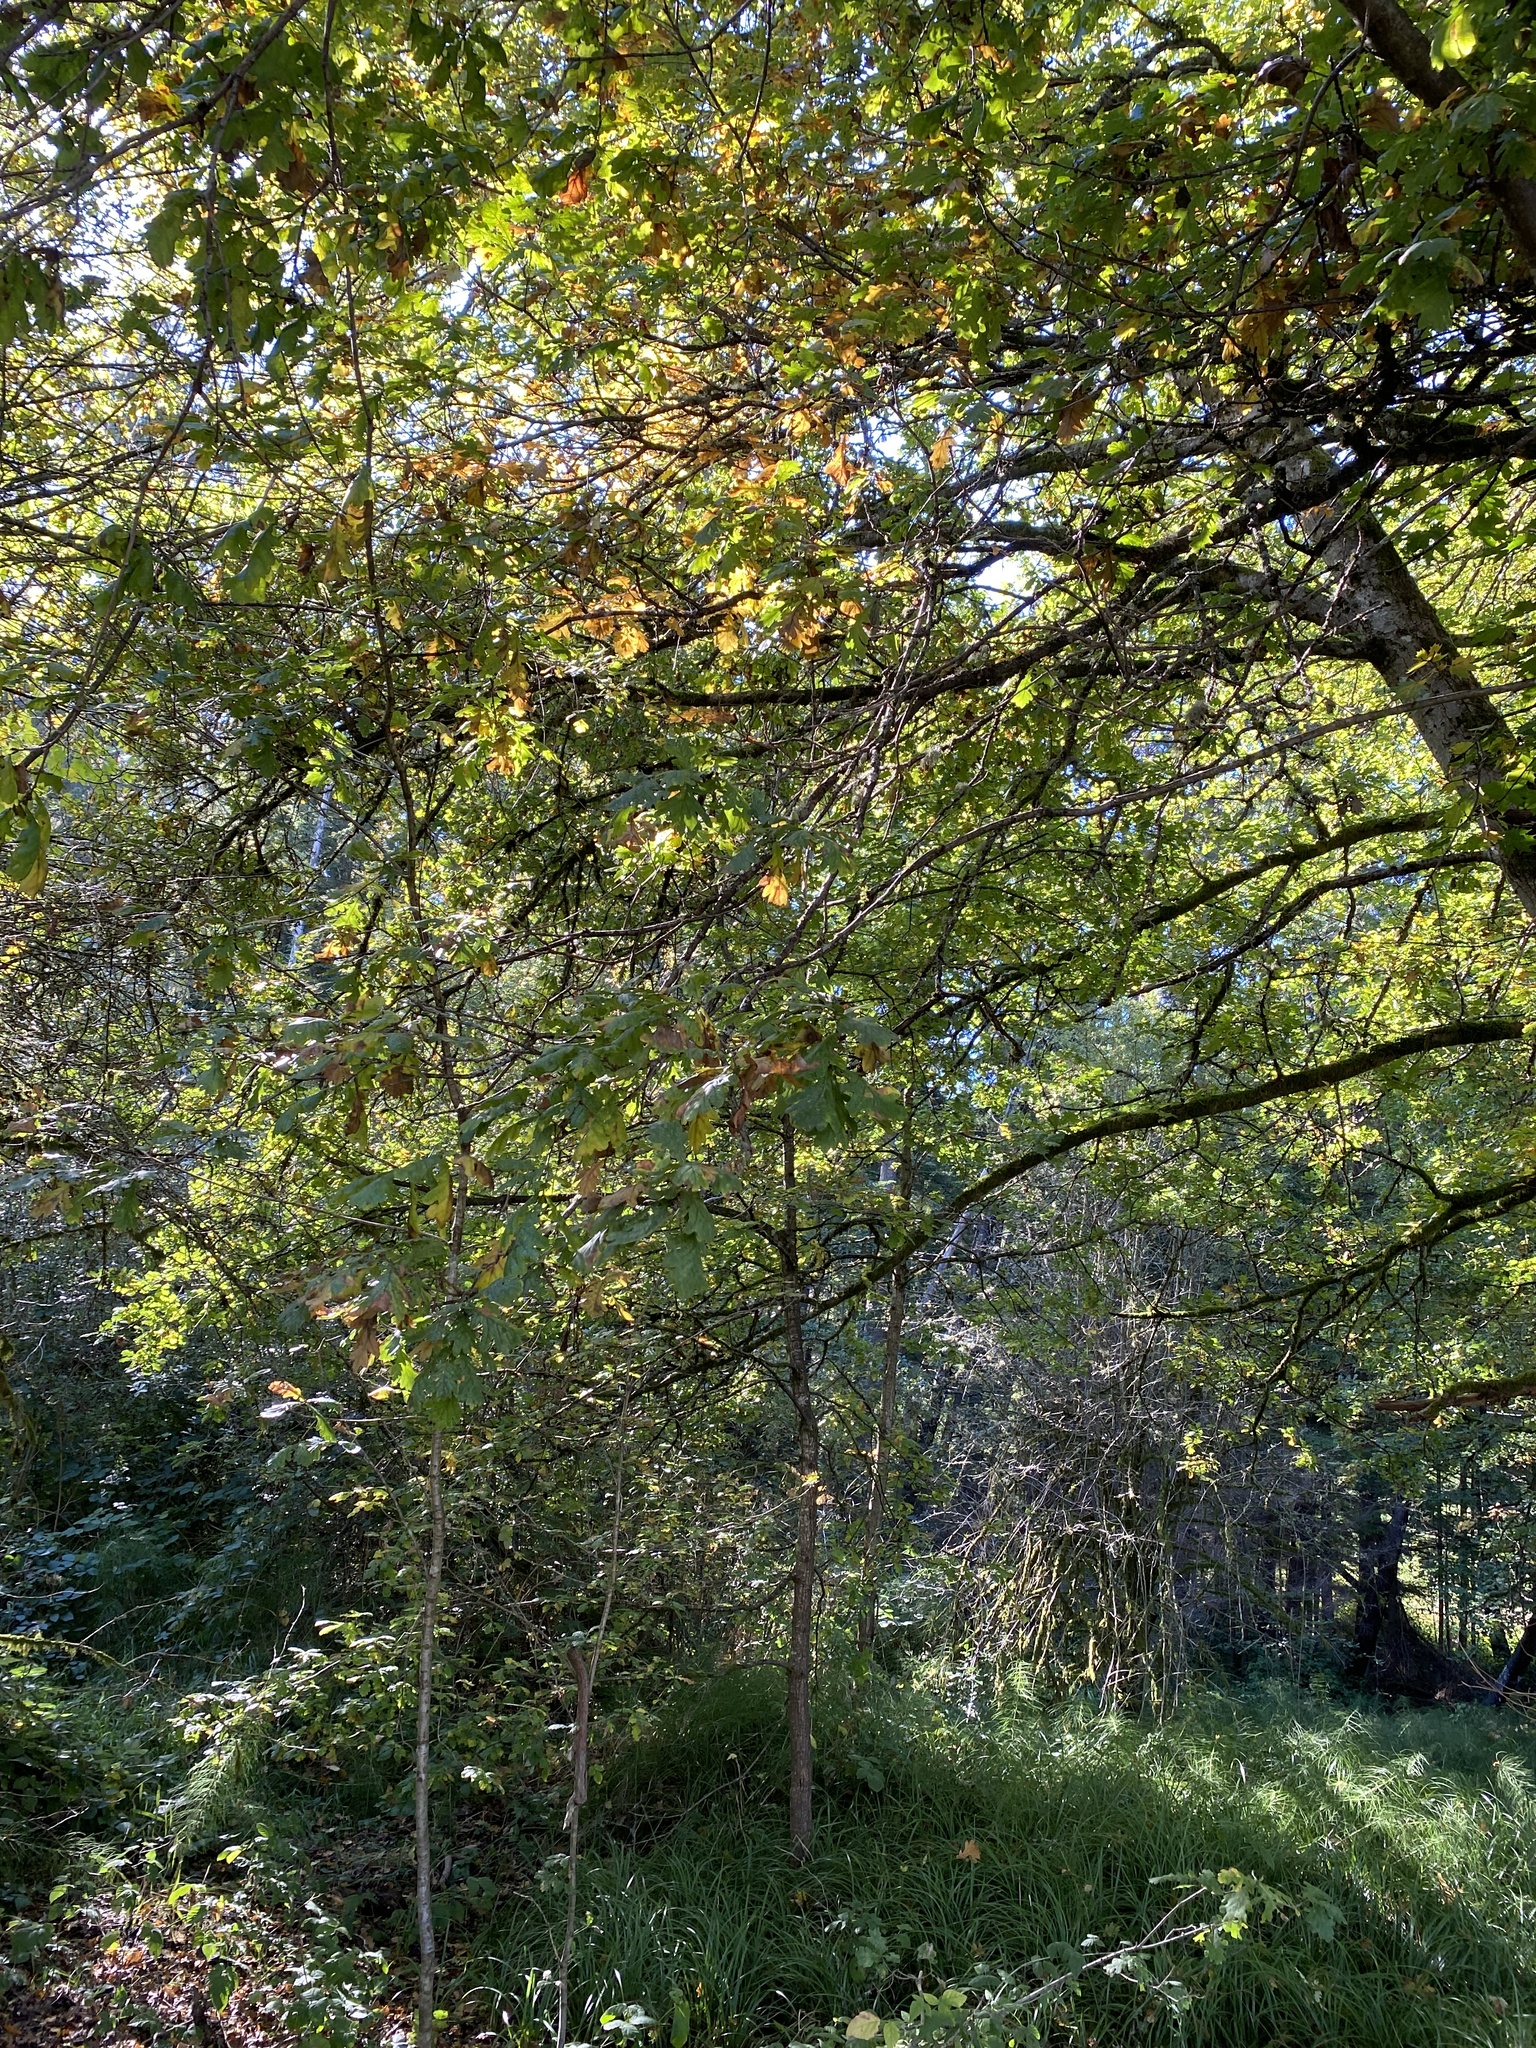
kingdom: Plantae
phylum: Tracheophyta
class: Magnoliopsida
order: Fagales
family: Fagaceae
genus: Quercus
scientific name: Quercus robur
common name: Pedunculate oak
